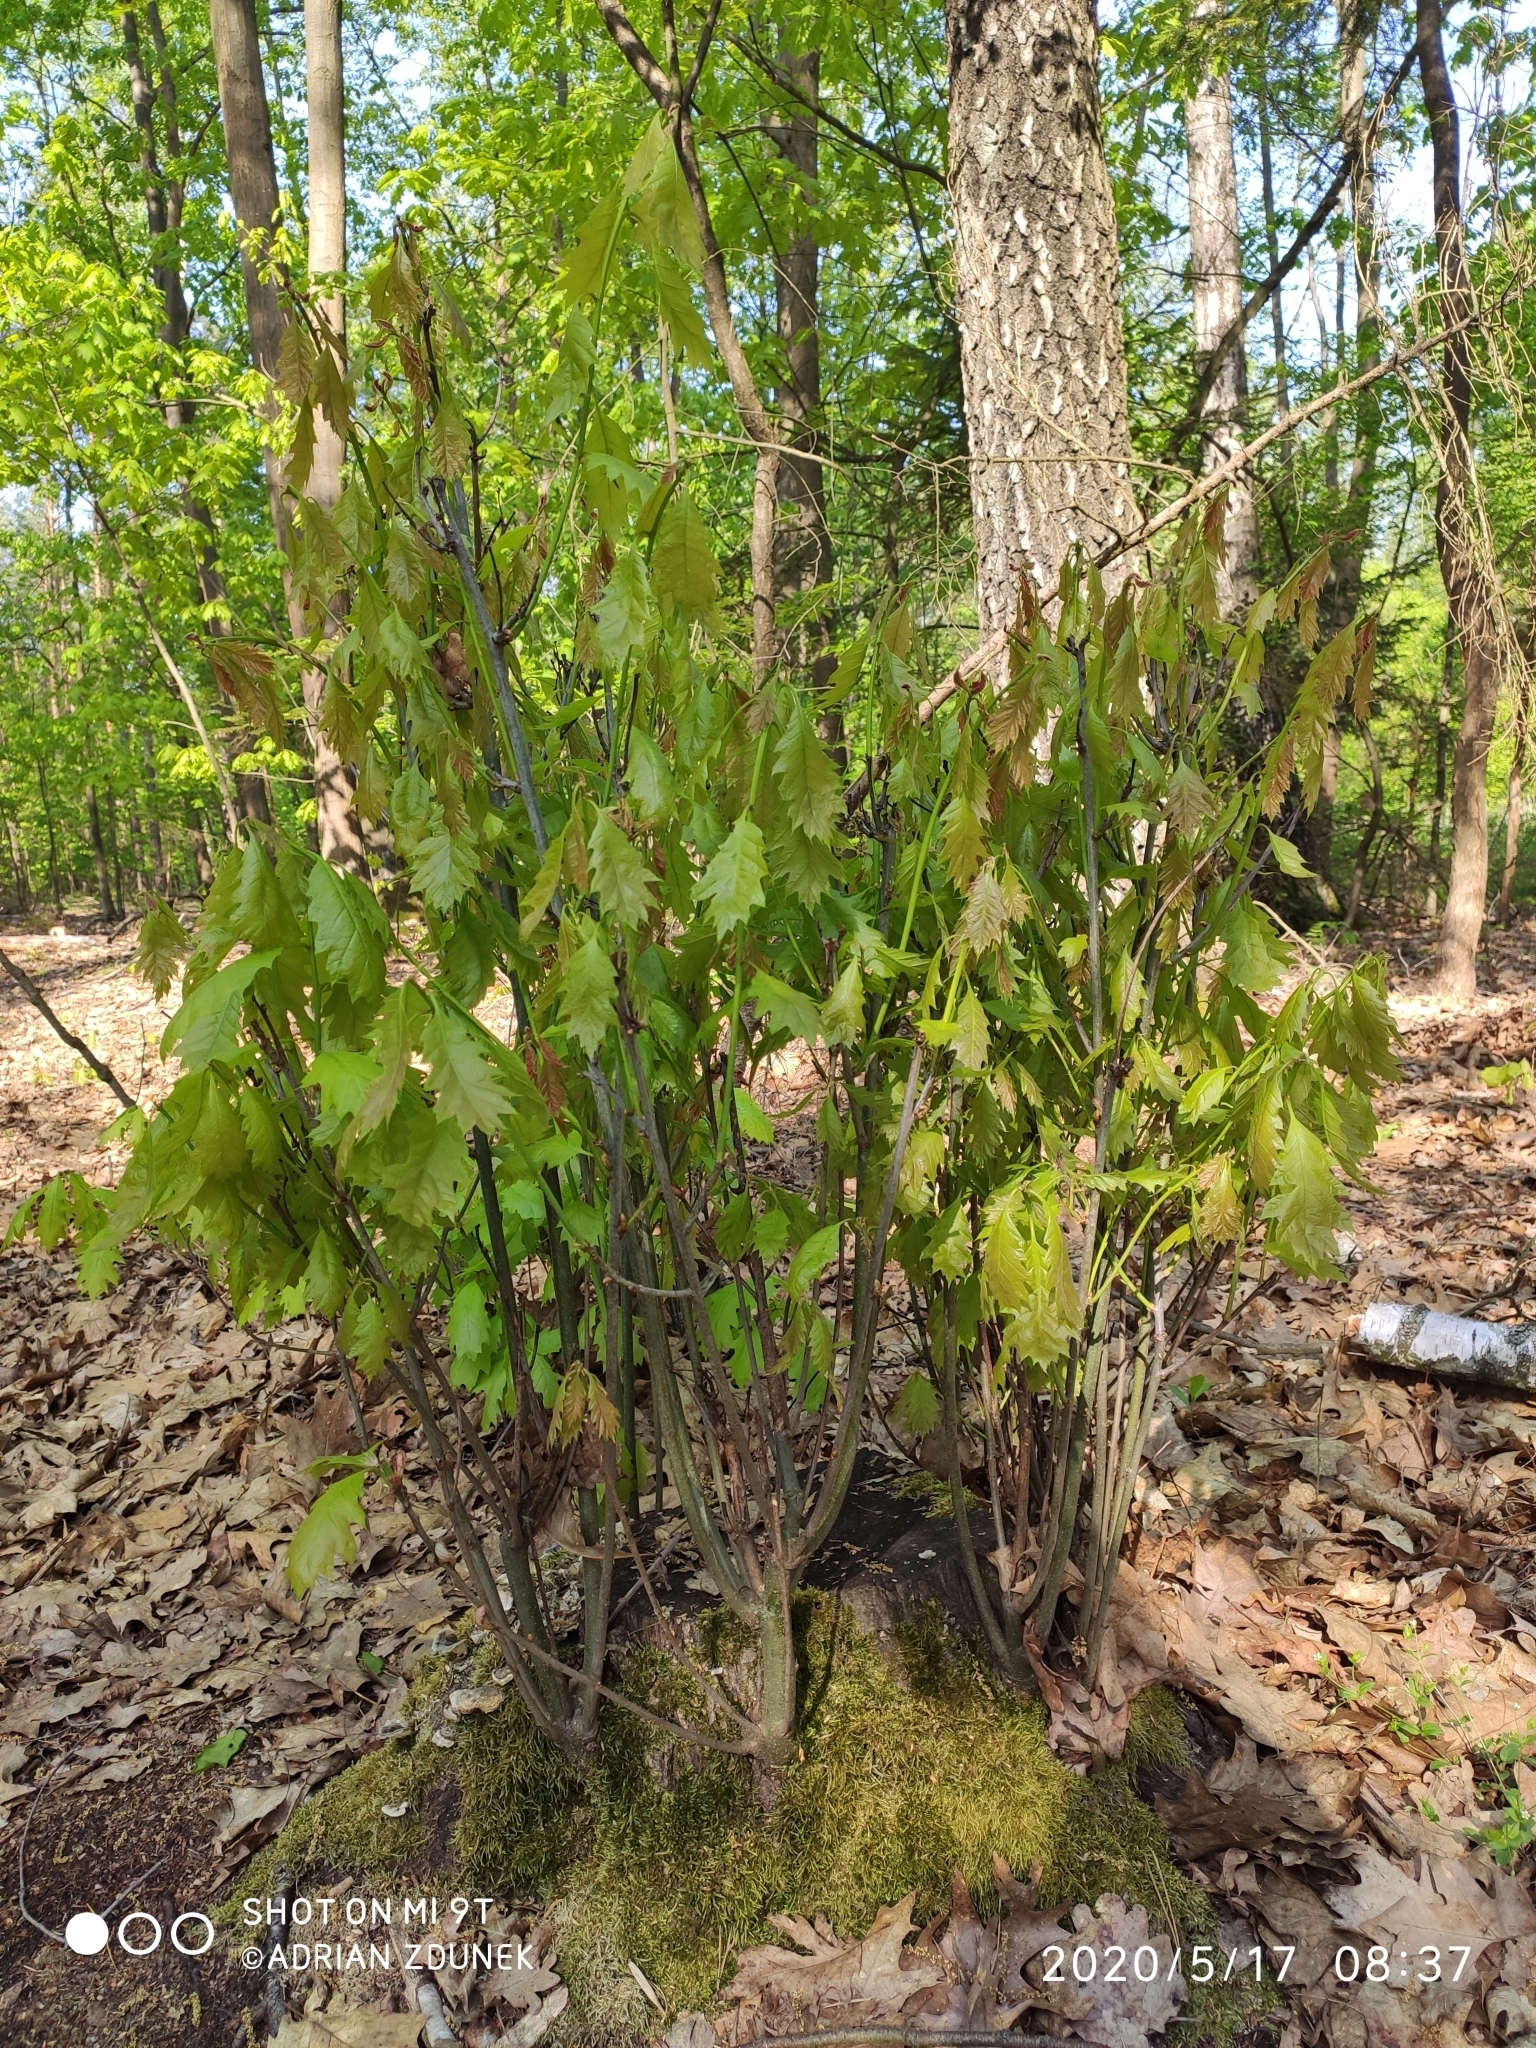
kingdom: Plantae
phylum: Tracheophyta
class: Magnoliopsida
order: Fagales
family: Fagaceae
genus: Quercus
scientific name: Quercus rubra
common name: Red oak
